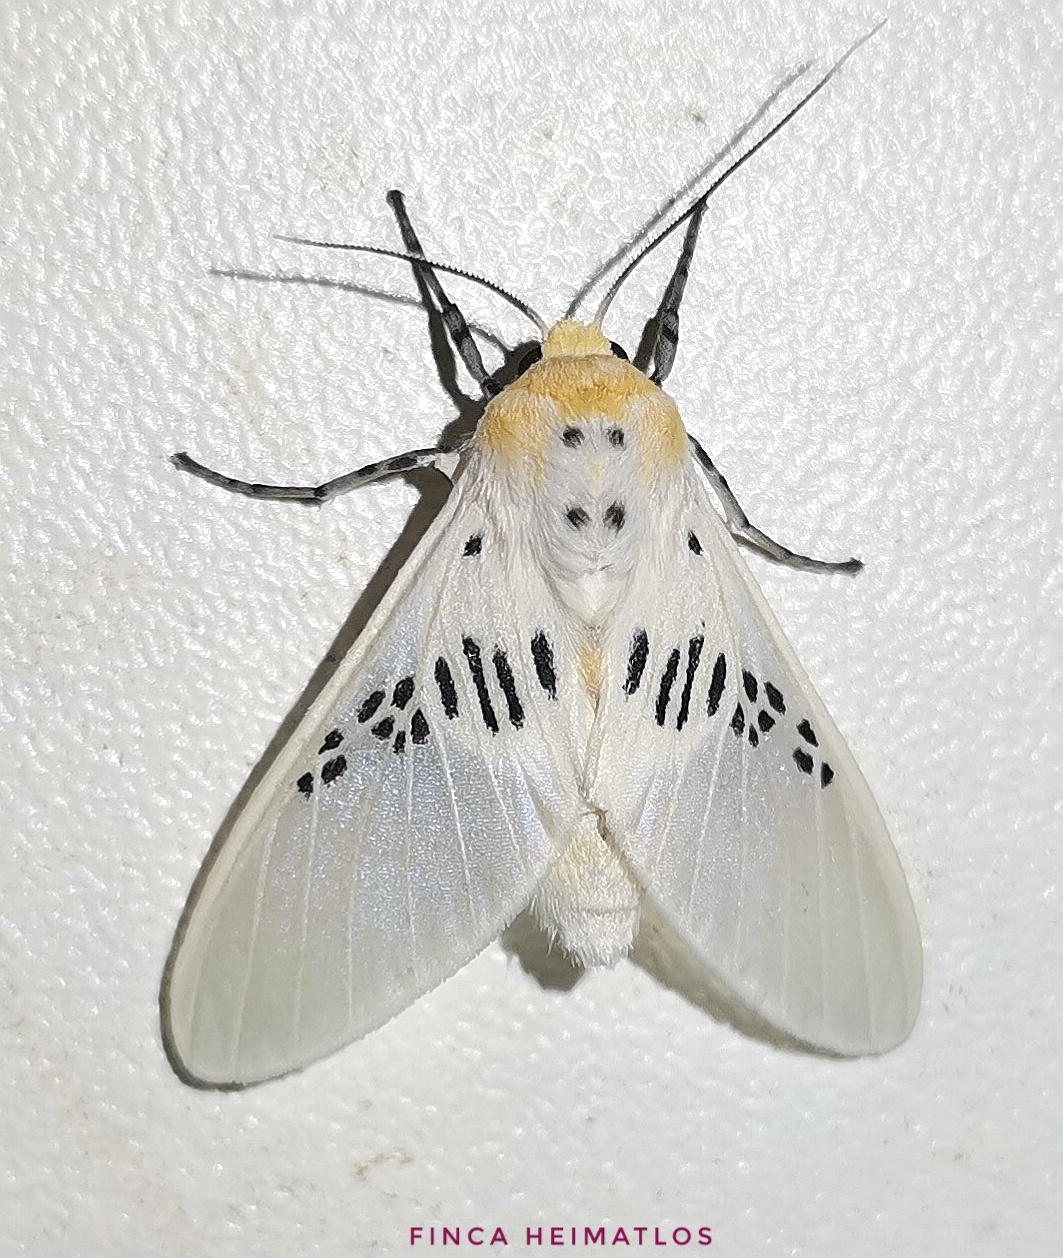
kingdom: Animalia
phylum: Arthropoda
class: Insecta
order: Lepidoptera
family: Erebidae
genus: Idalus
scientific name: Idalus fasciipuncta
